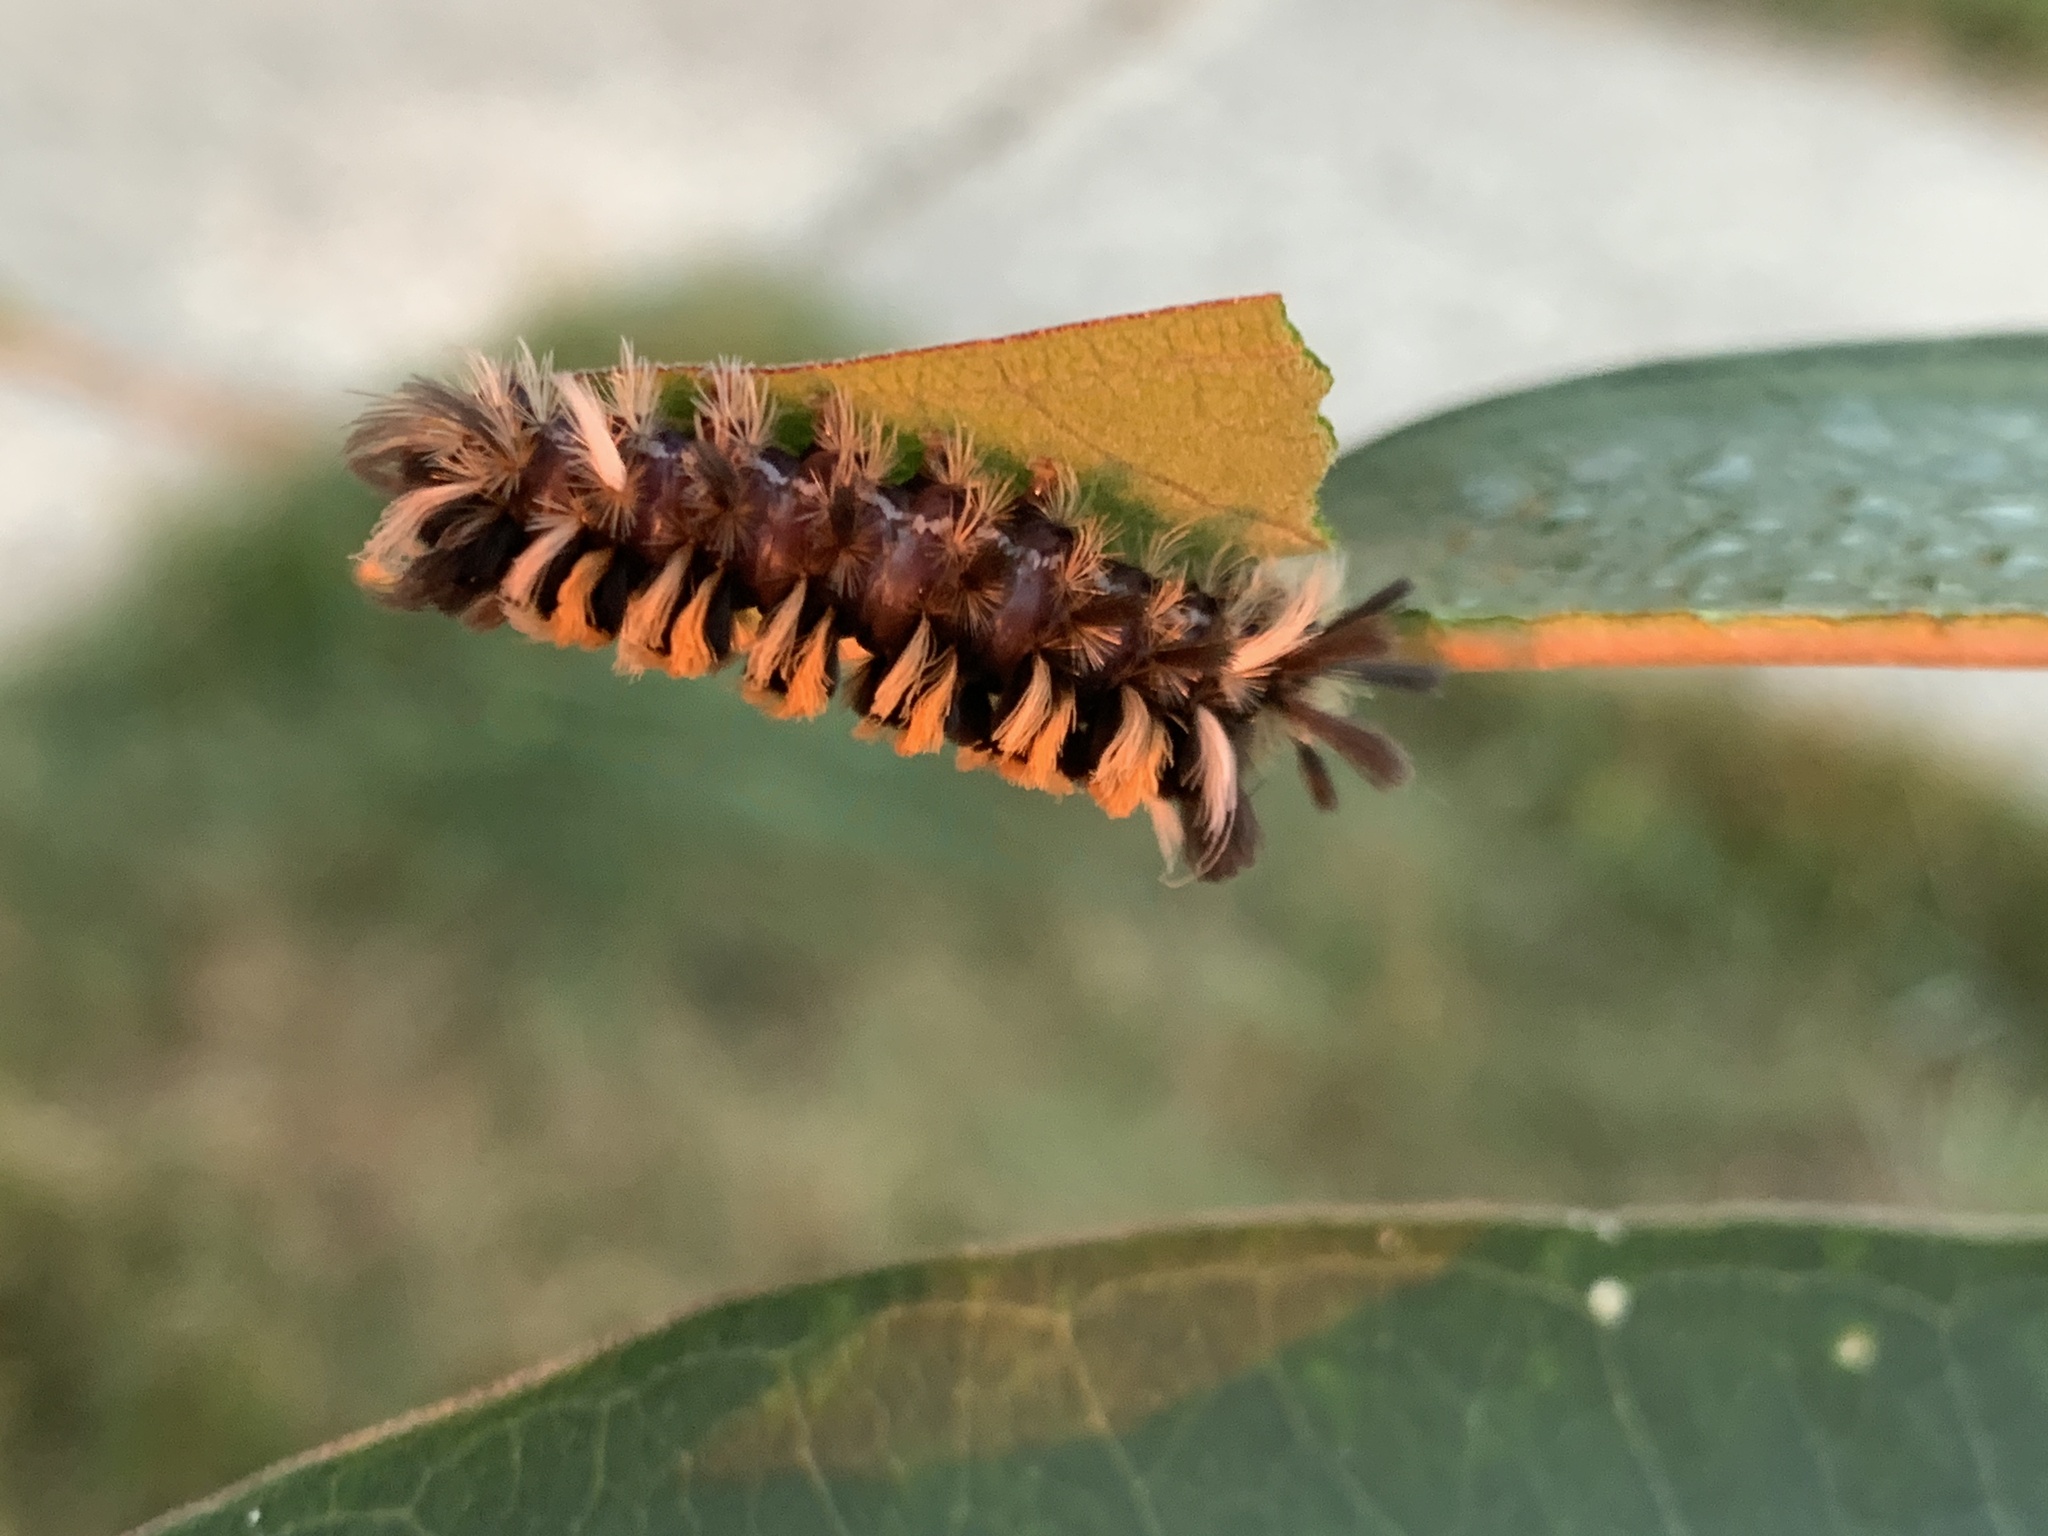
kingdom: Animalia
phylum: Arthropoda
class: Insecta
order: Lepidoptera
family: Erebidae
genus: Euchaetes
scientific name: Euchaetes egle
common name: Milkweed tussock moth
